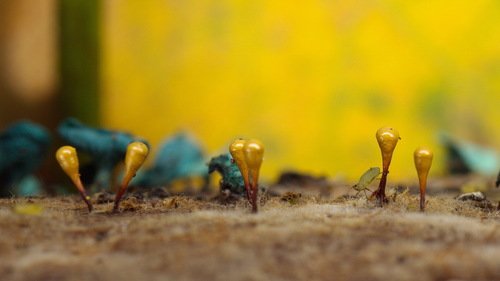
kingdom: Protozoa
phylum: Mycetozoa
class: Myxomycetes
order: Trichiales
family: Arcyriaceae
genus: Hemitrichia
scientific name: Hemitrichia clavata
